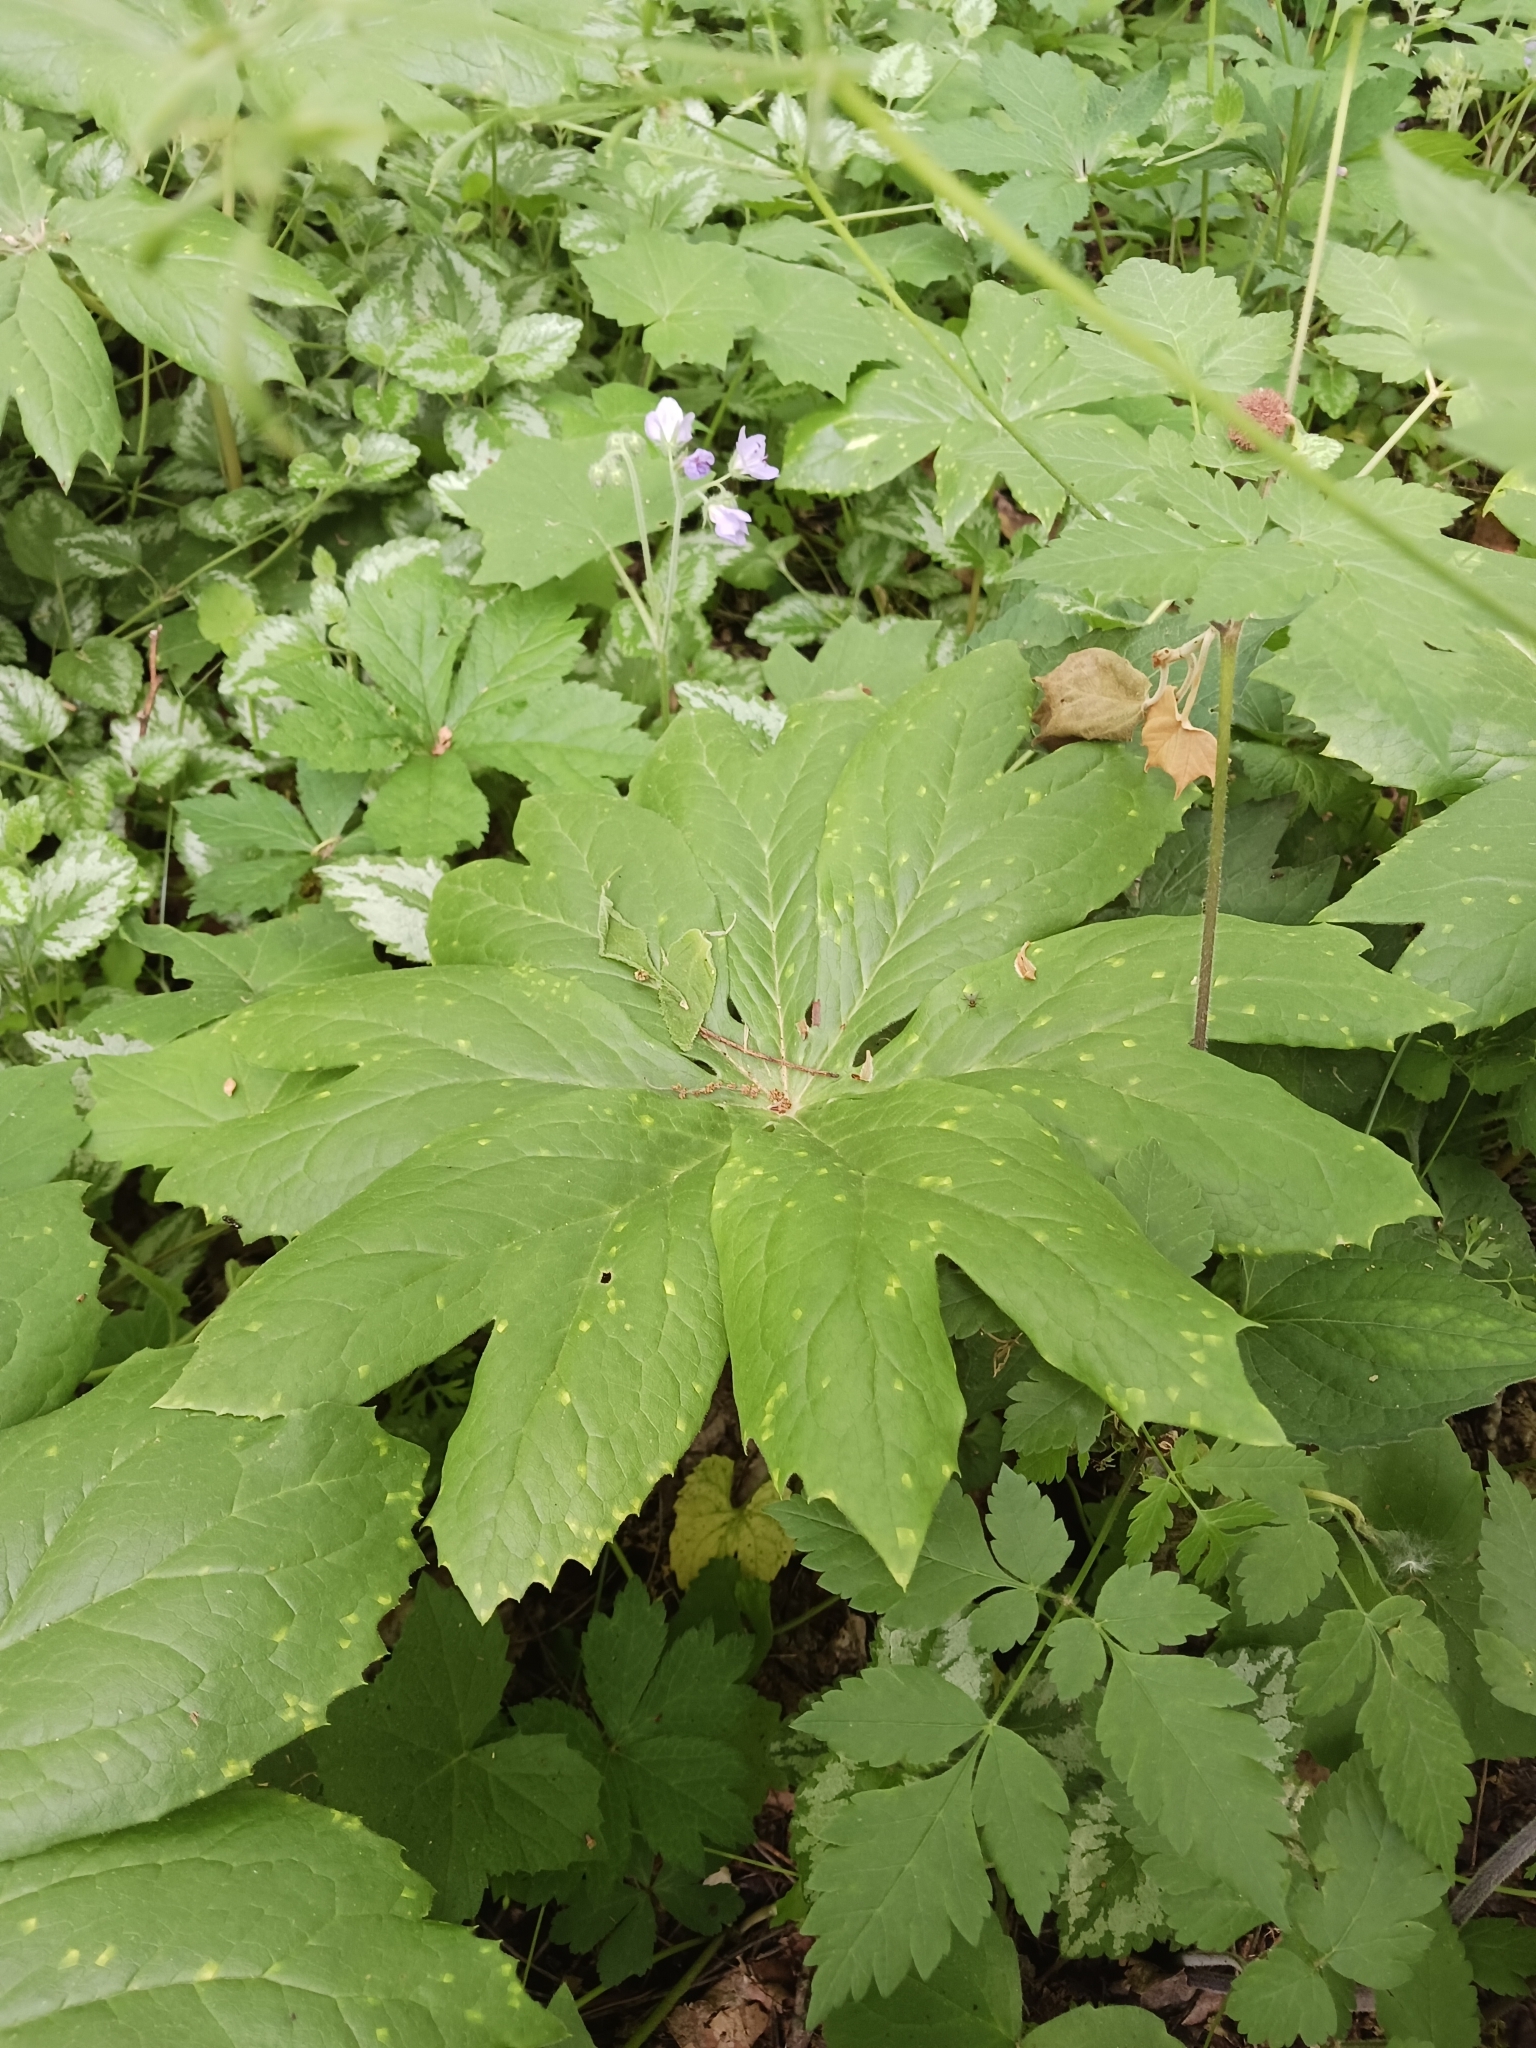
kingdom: Plantae
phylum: Tracheophyta
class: Magnoliopsida
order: Ranunculales
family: Berberidaceae
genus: Podophyllum
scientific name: Podophyllum peltatum
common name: Wild mandrake
